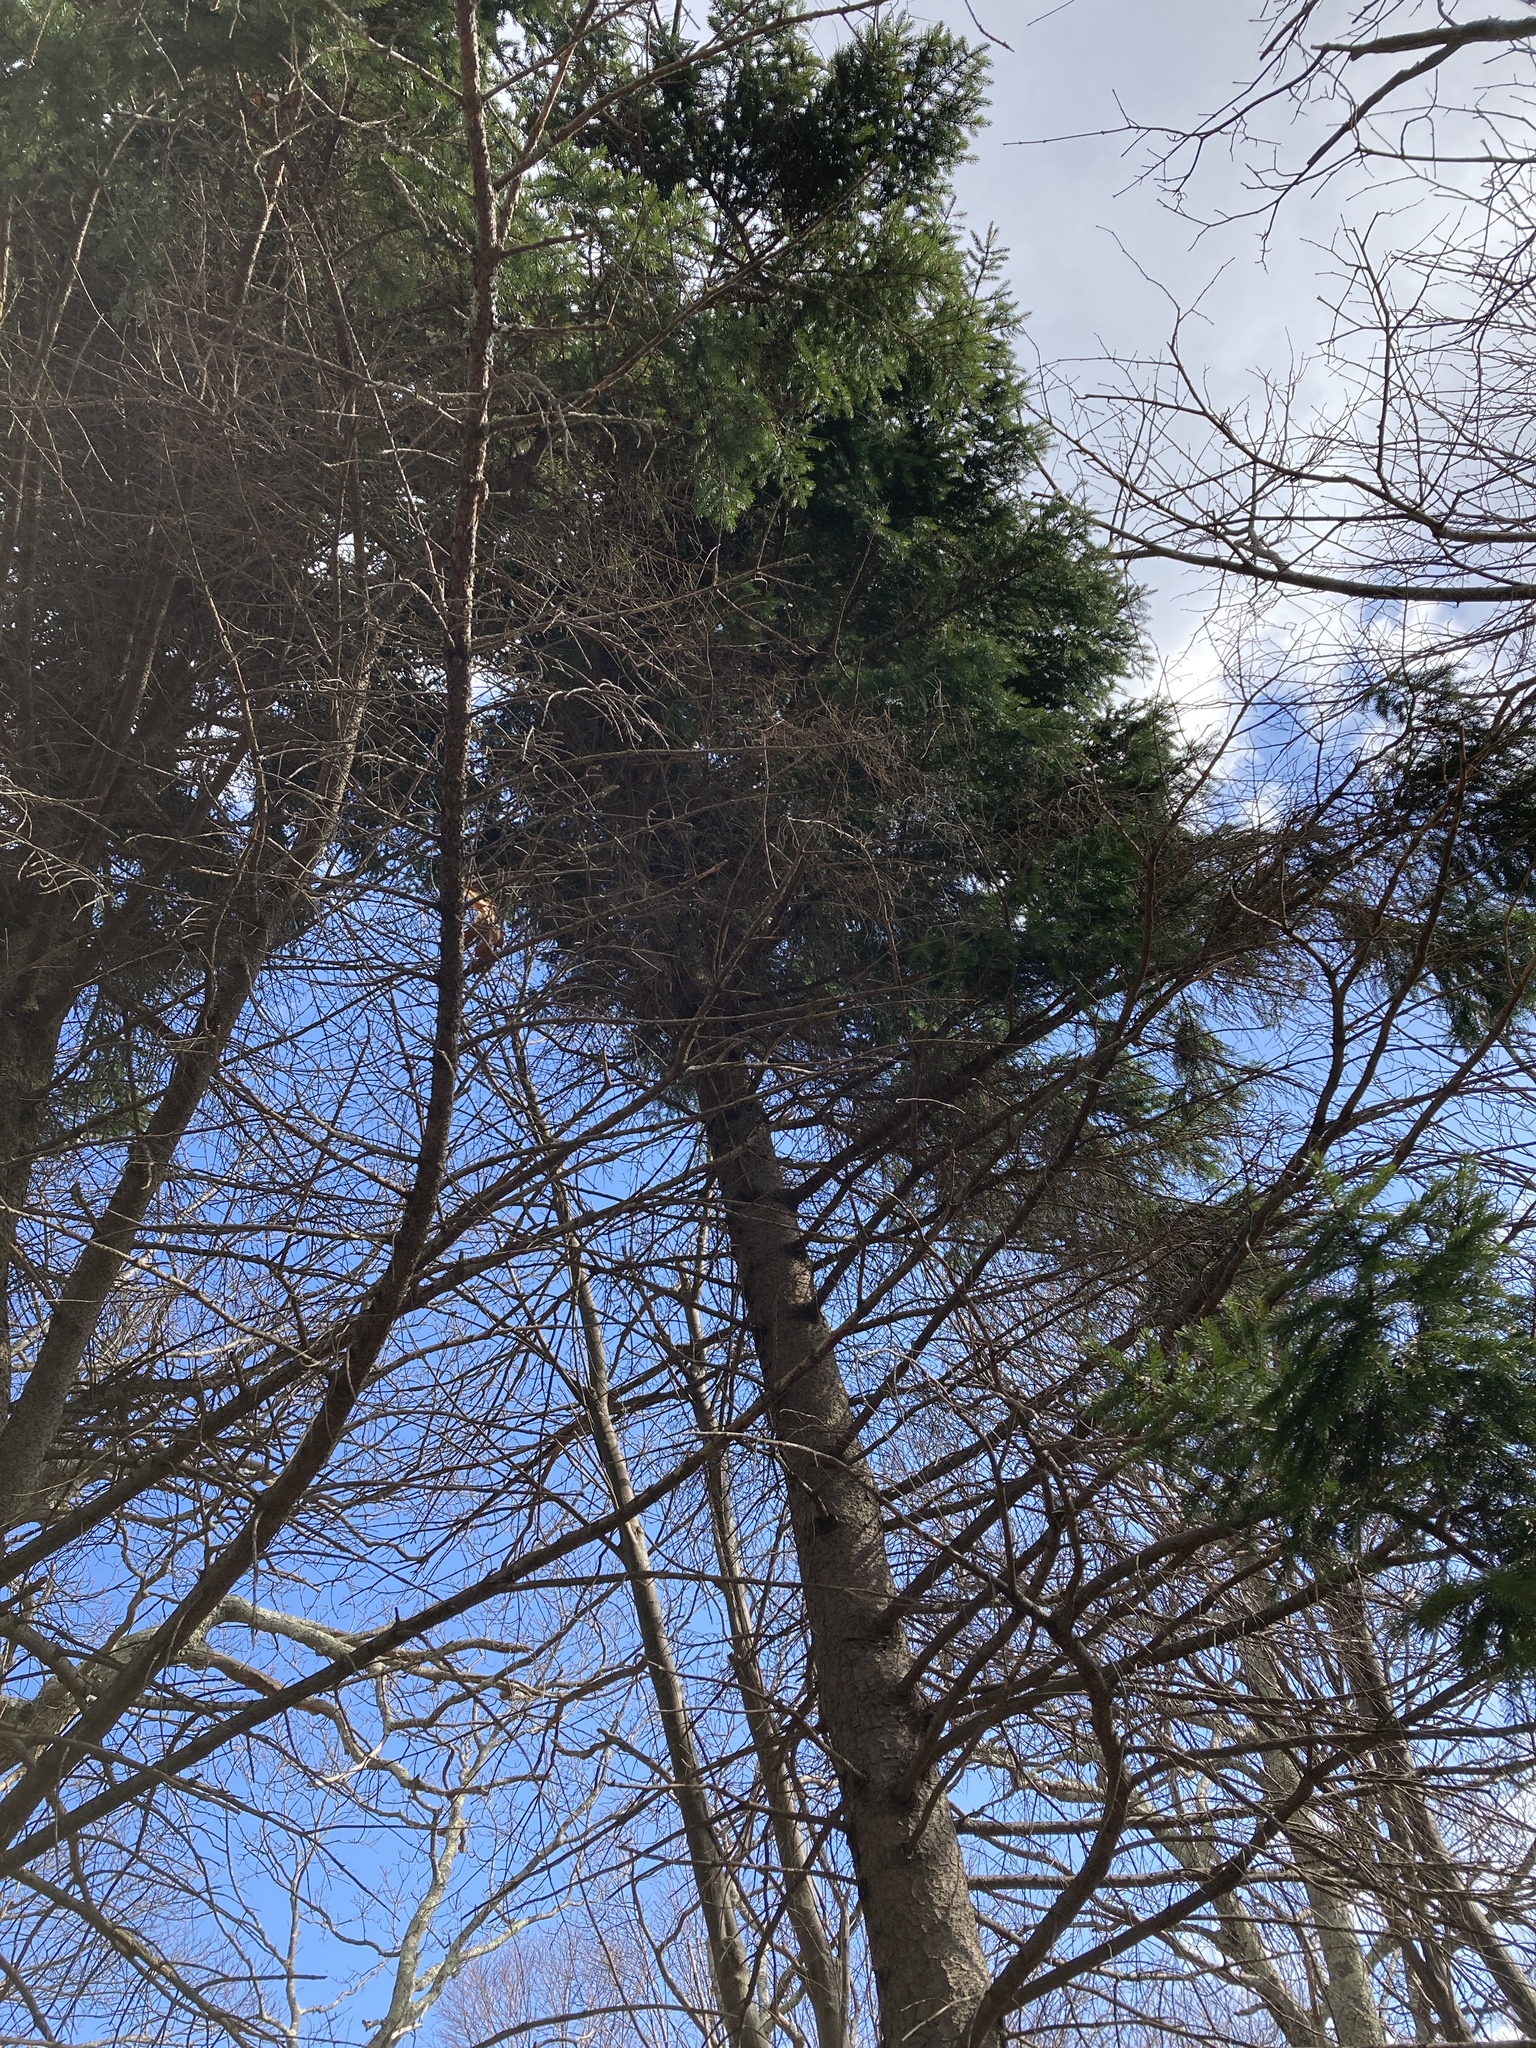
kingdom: Plantae
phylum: Tracheophyta
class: Pinopsida
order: Pinales
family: Pinaceae
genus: Picea
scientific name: Picea rubens
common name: Red spruce
